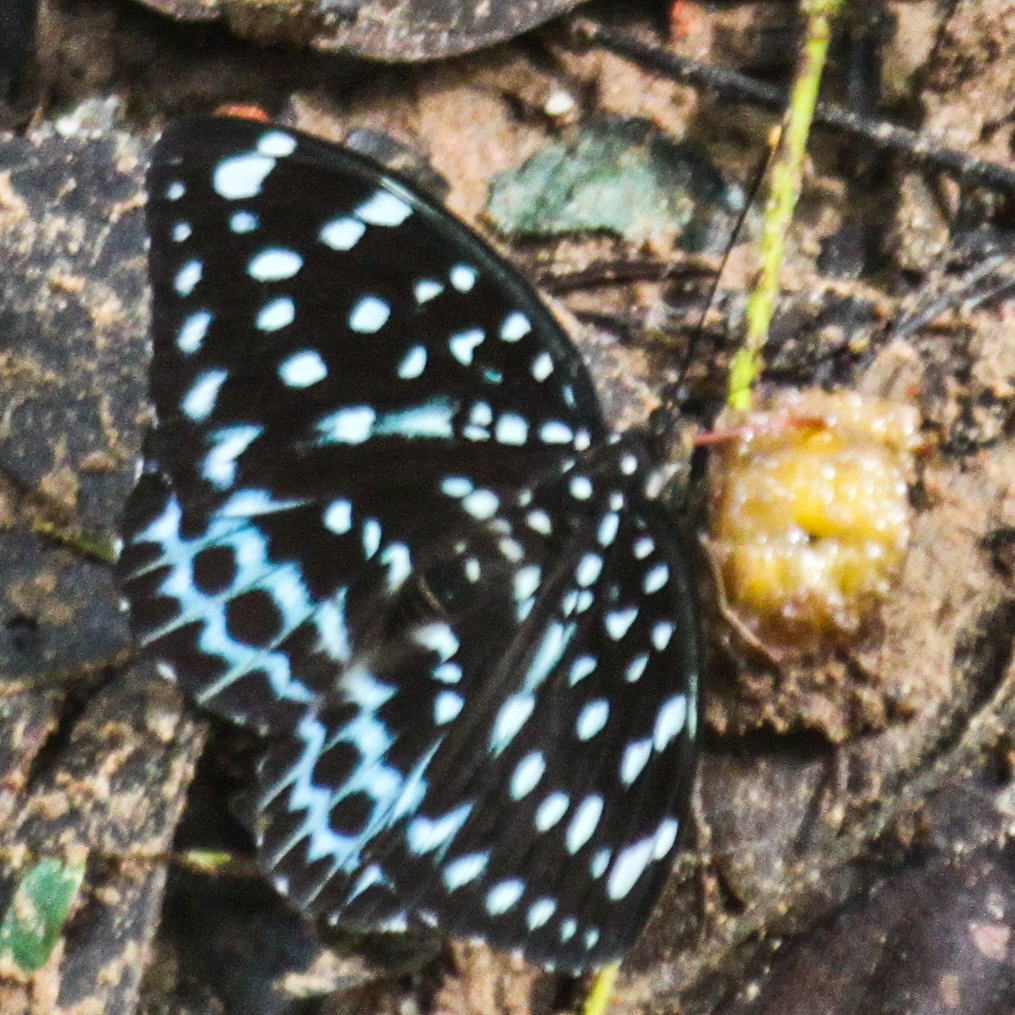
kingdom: Animalia
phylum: Arthropoda
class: Insecta
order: Lepidoptera
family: Nymphalidae
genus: Lexias
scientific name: Lexias
